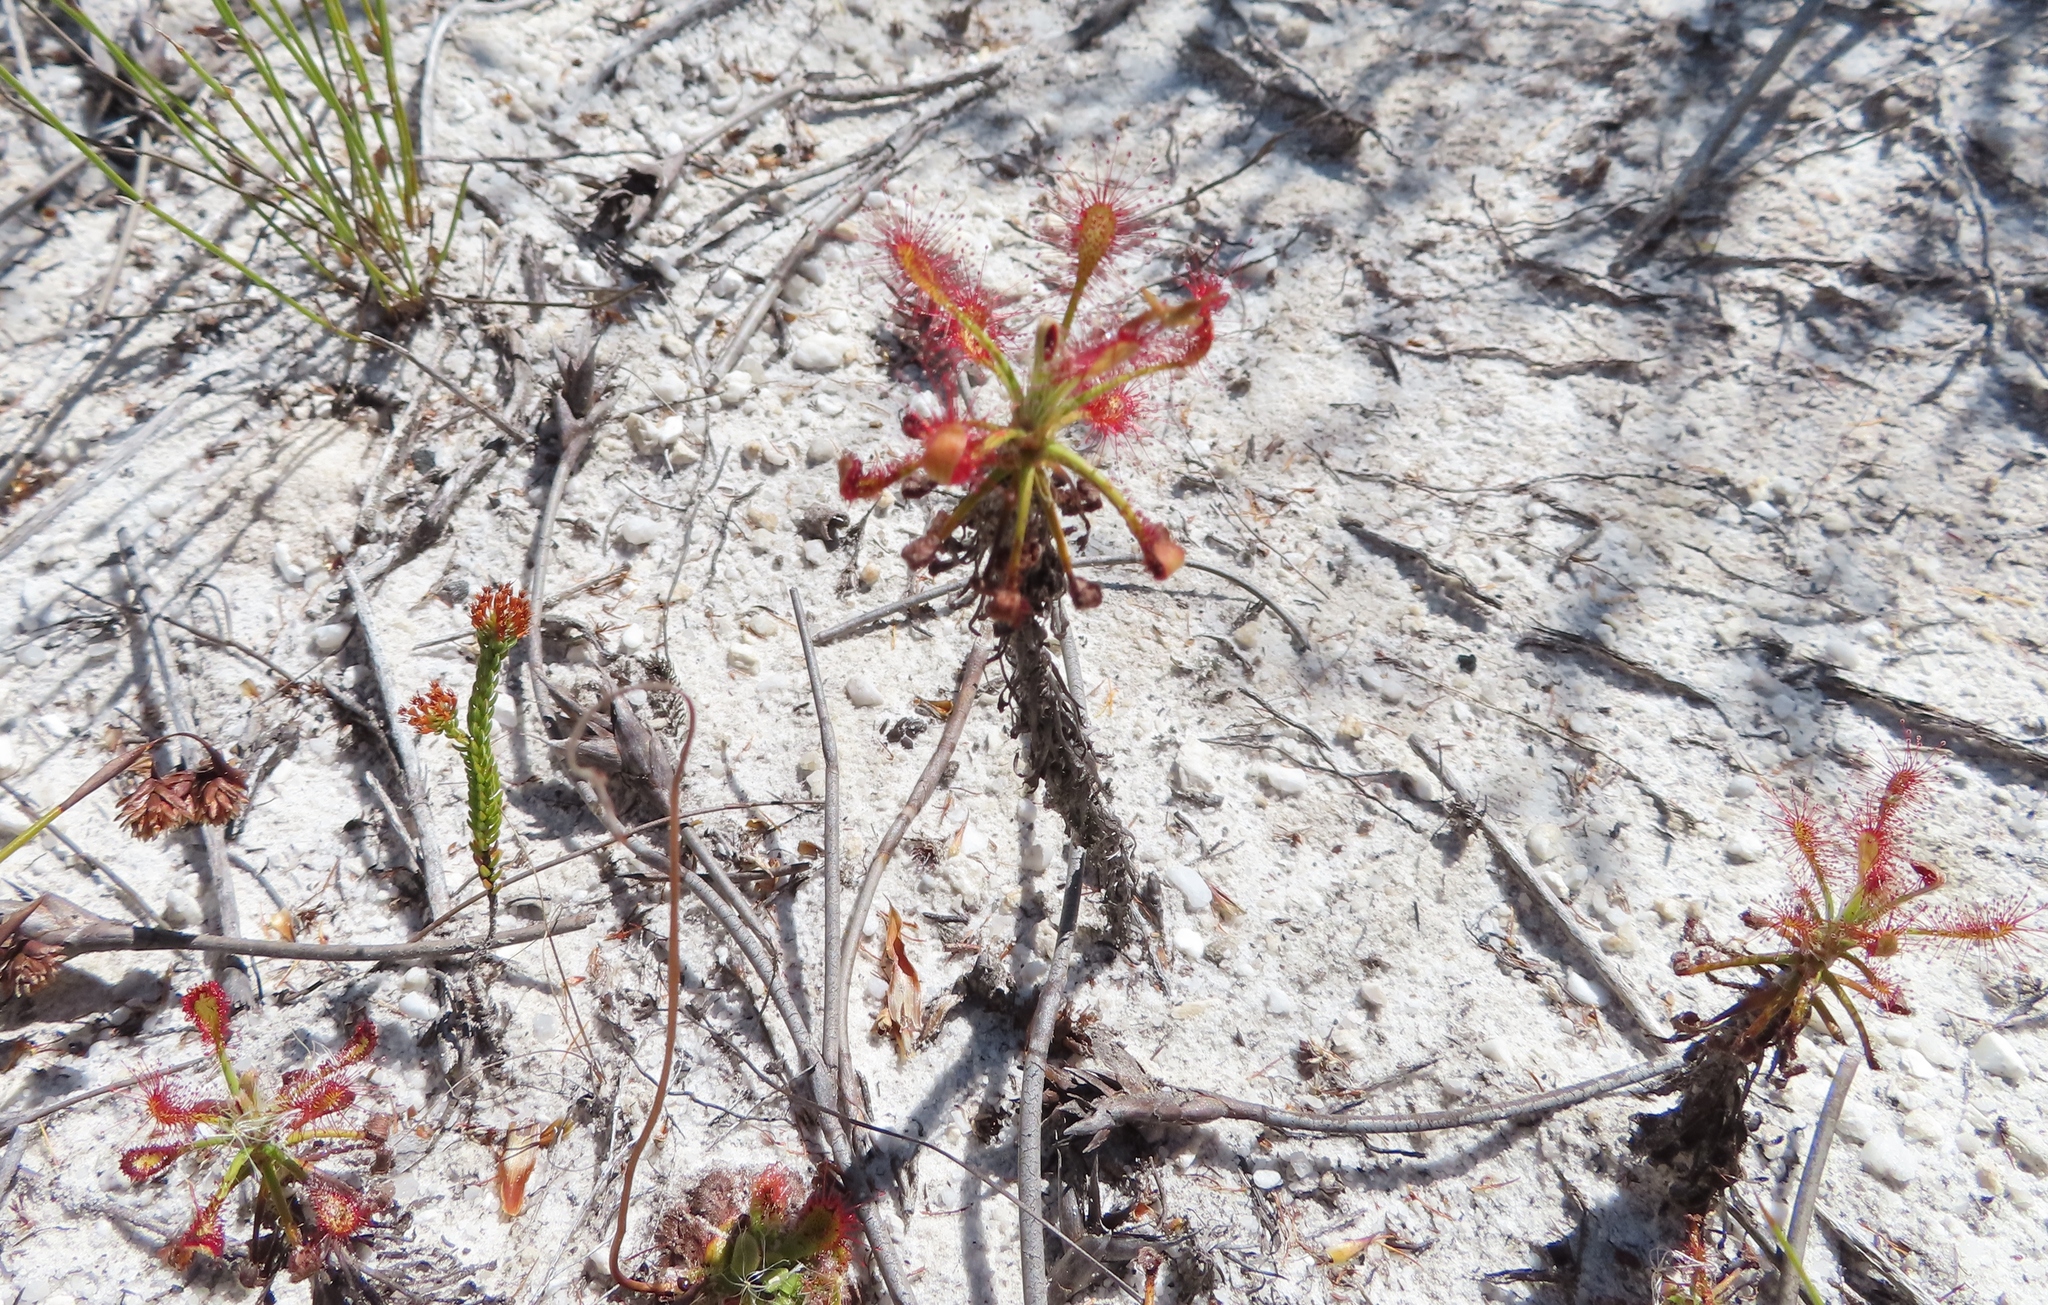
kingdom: Plantae
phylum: Tracheophyta
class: Magnoliopsida
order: Caryophyllales
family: Droseraceae
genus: Drosera
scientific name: Drosera glabripes
